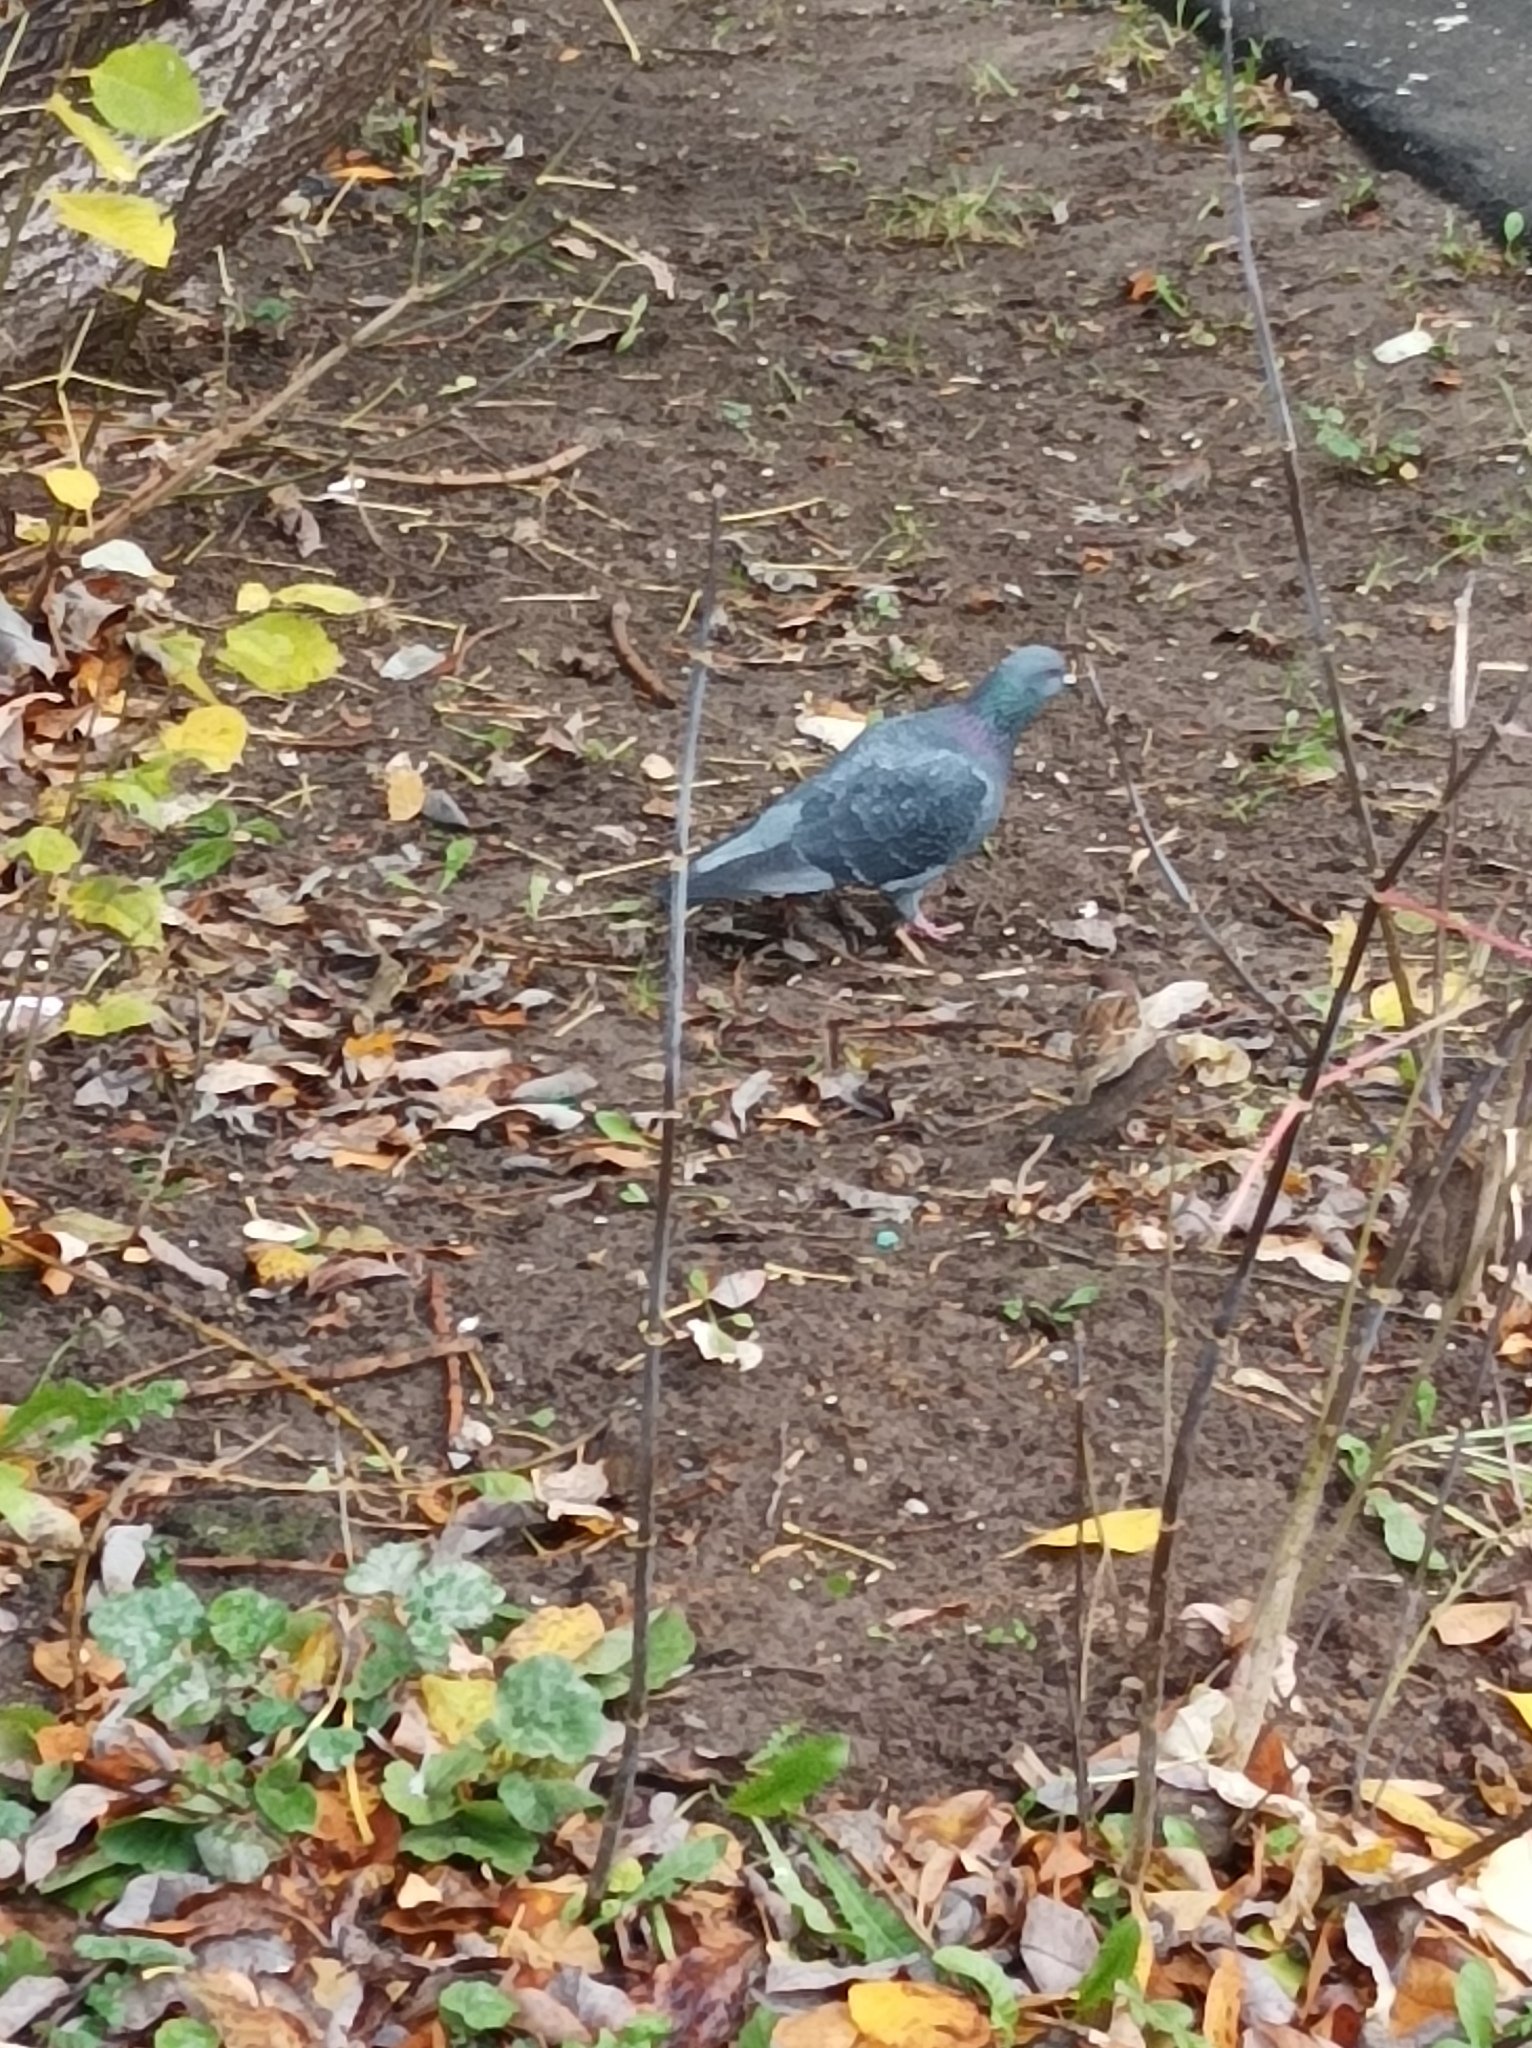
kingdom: Animalia
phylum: Chordata
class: Aves
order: Columbiformes
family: Columbidae
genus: Columba
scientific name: Columba livia
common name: Rock pigeon
